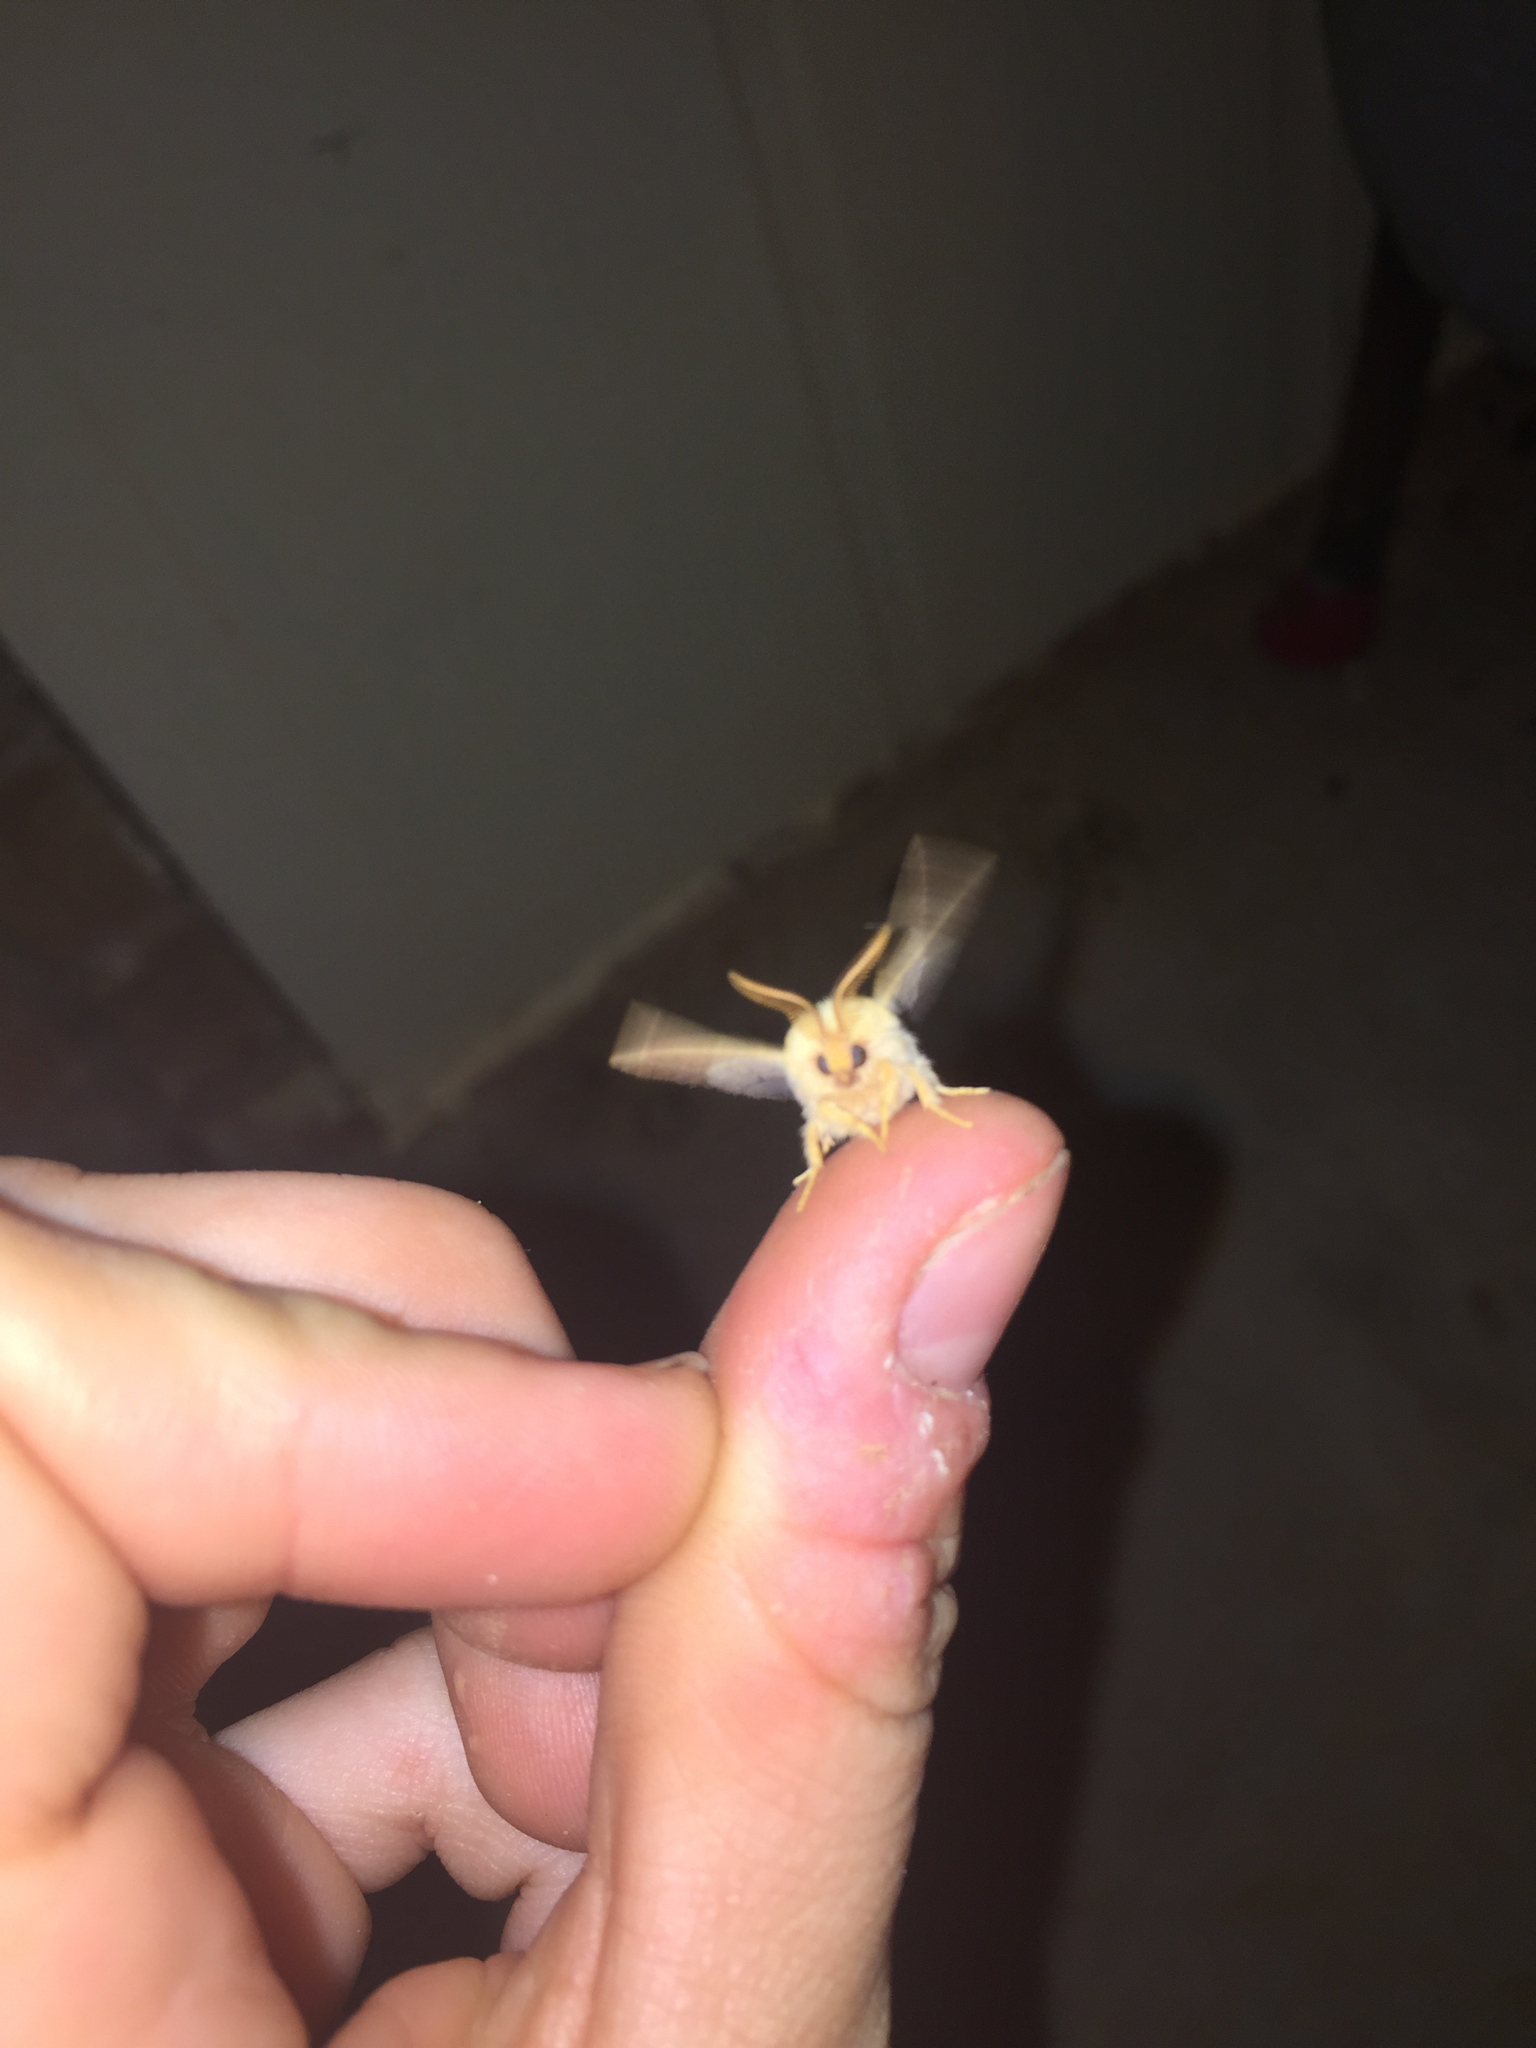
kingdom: Animalia
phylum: Arthropoda
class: Insecta
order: Lepidoptera
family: Lasiocampidae
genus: Malacosoma
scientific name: Malacosoma disstria
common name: Forest tent caterpillar
